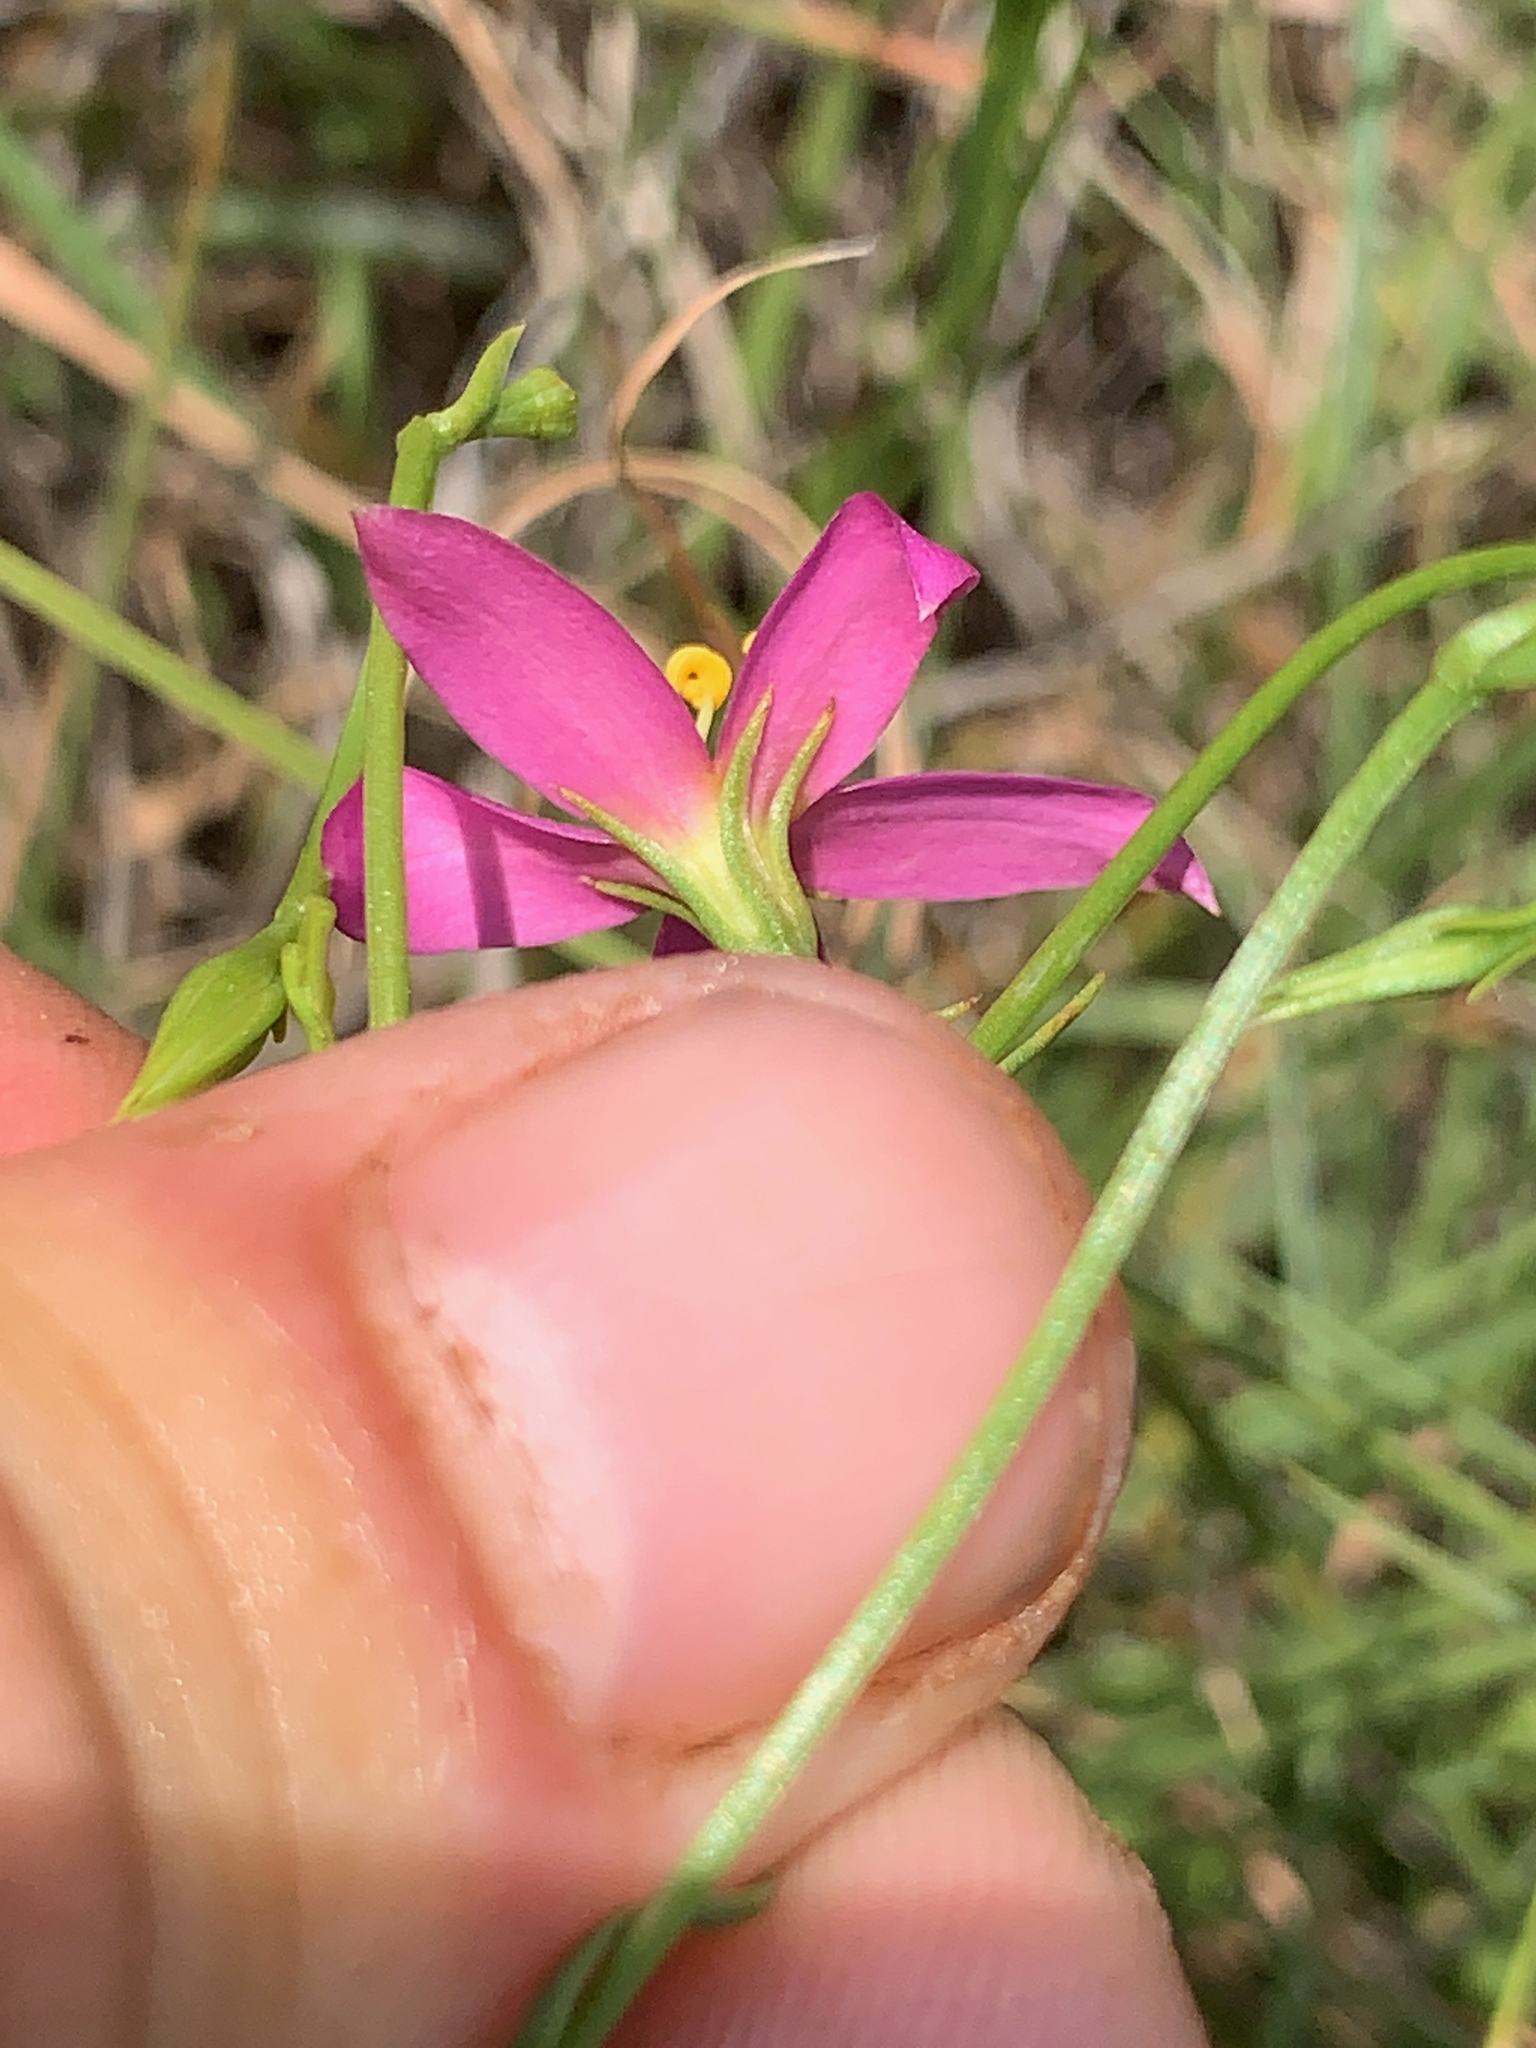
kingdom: Plantae
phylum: Tracheophyta
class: Magnoliopsida
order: Gentianales
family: Gentianaceae
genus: Chironia
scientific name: Chironia purpurascens
